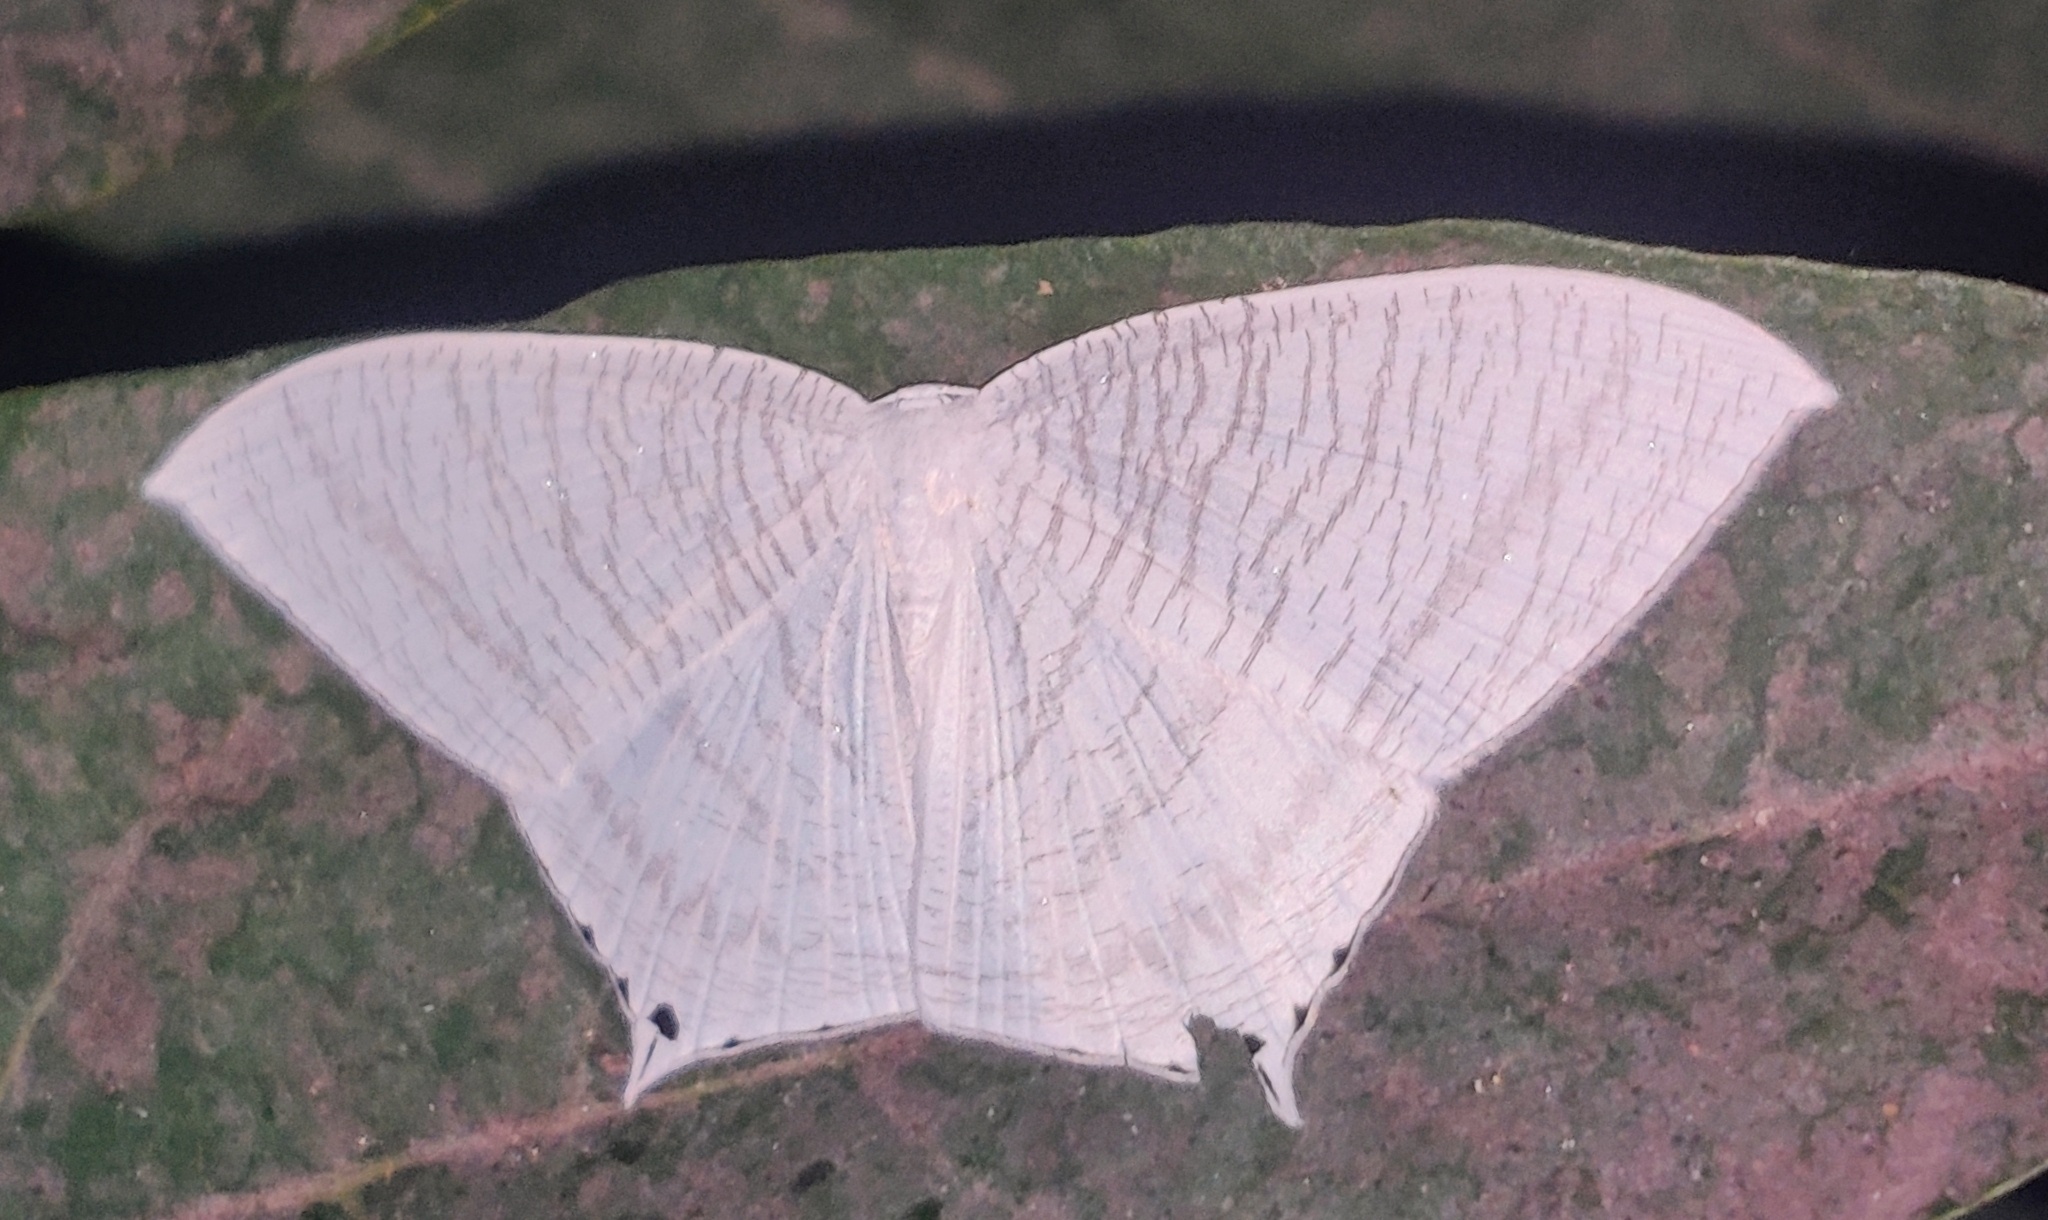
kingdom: Animalia
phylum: Arthropoda
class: Insecta
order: Lepidoptera
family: Uraniidae
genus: Micronia
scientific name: Micronia aculeata
